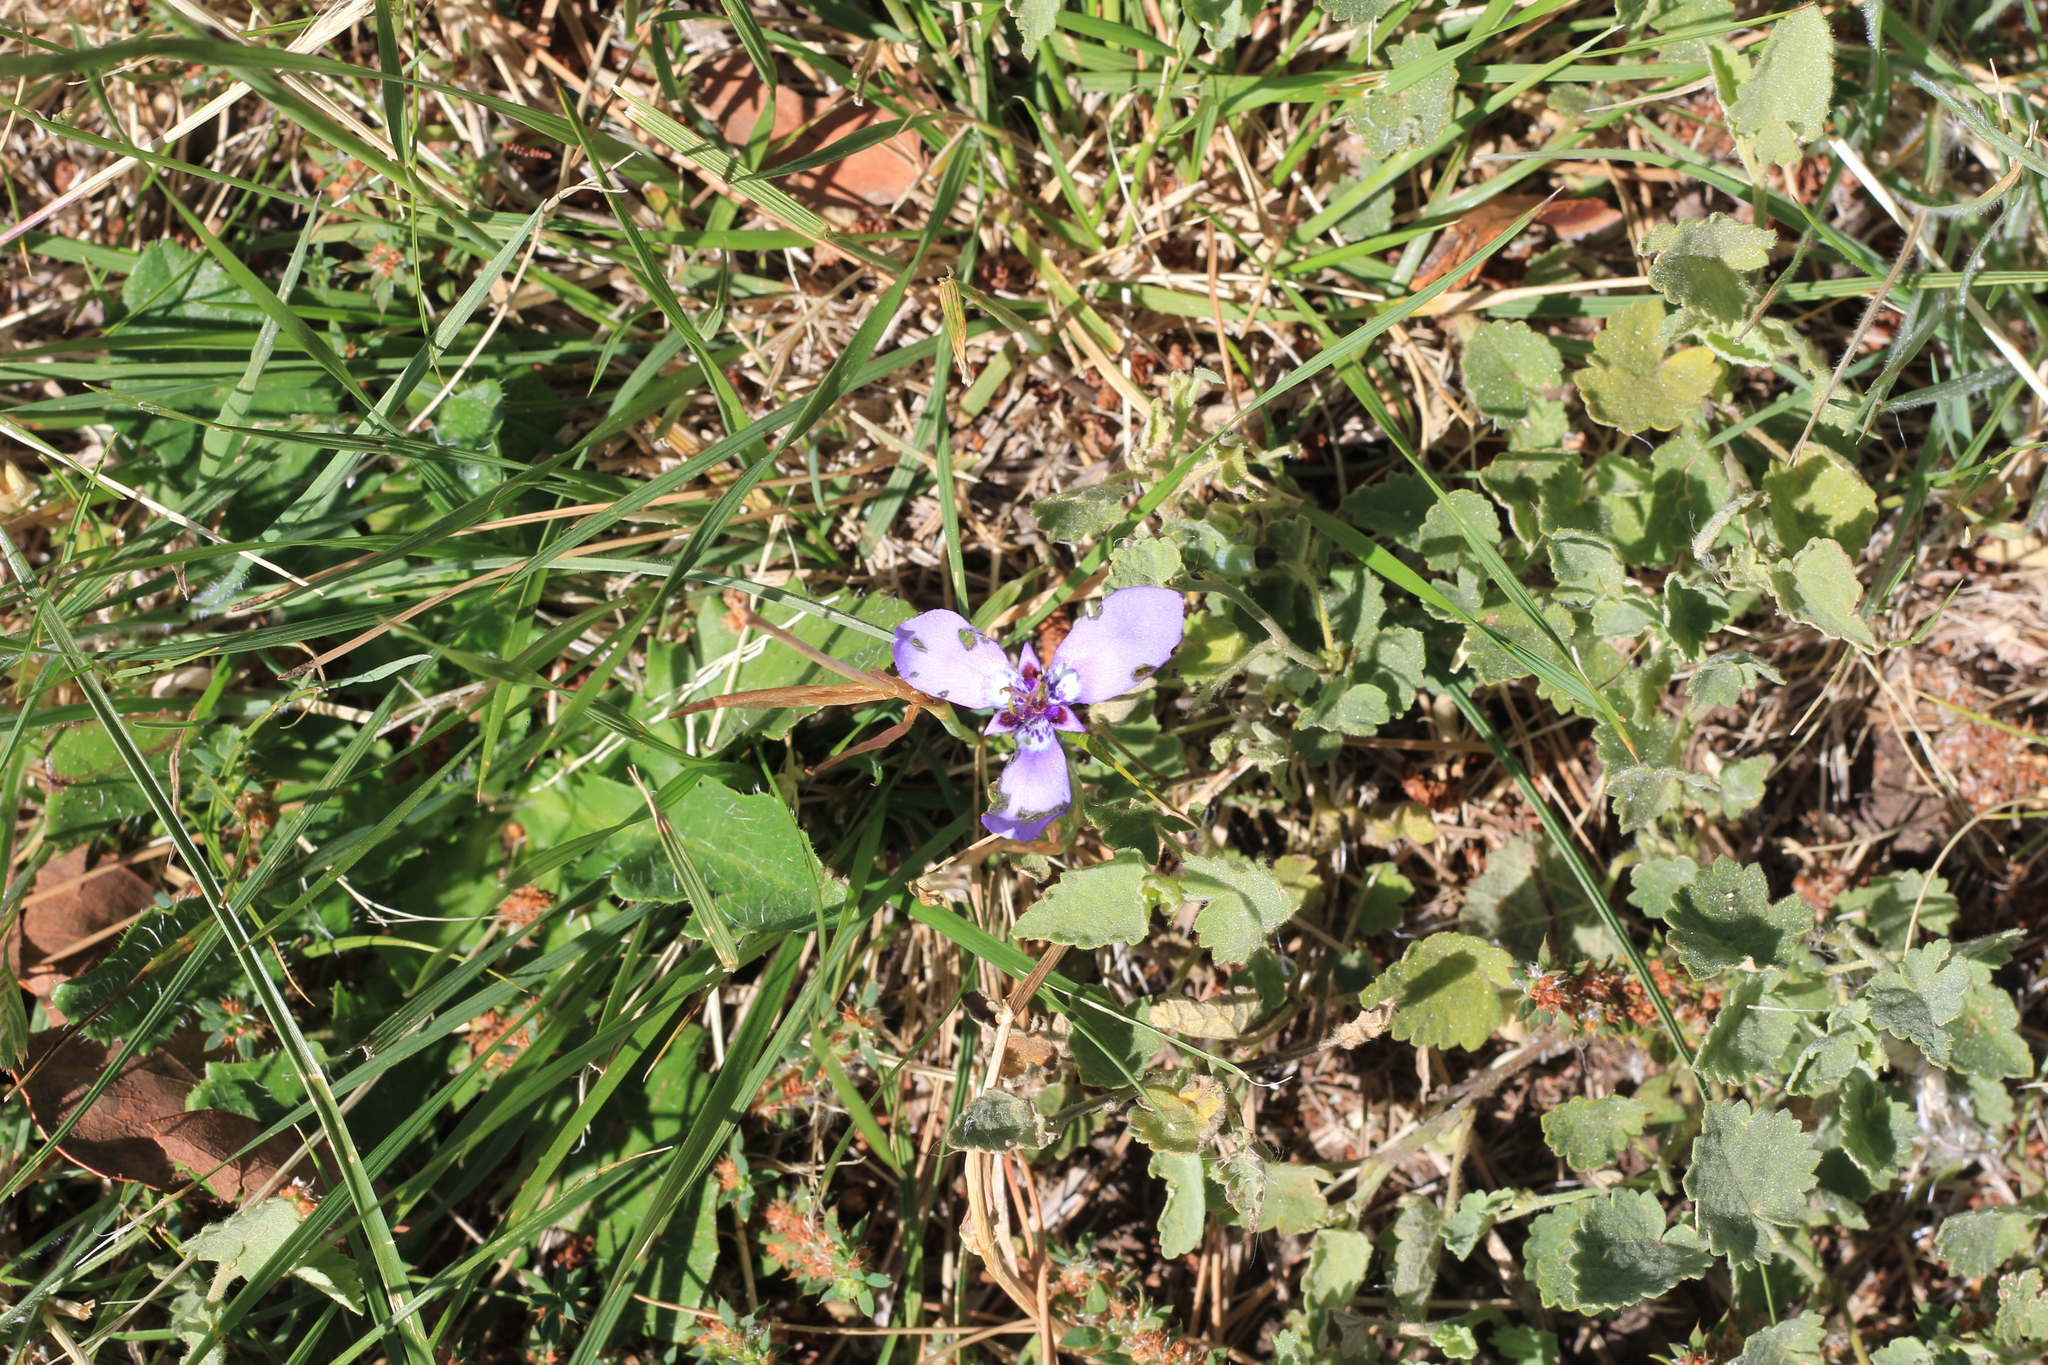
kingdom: Plantae
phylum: Tracheophyta
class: Liliopsida
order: Asparagales
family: Iridaceae
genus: Herbertia
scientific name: Herbertia lahue
